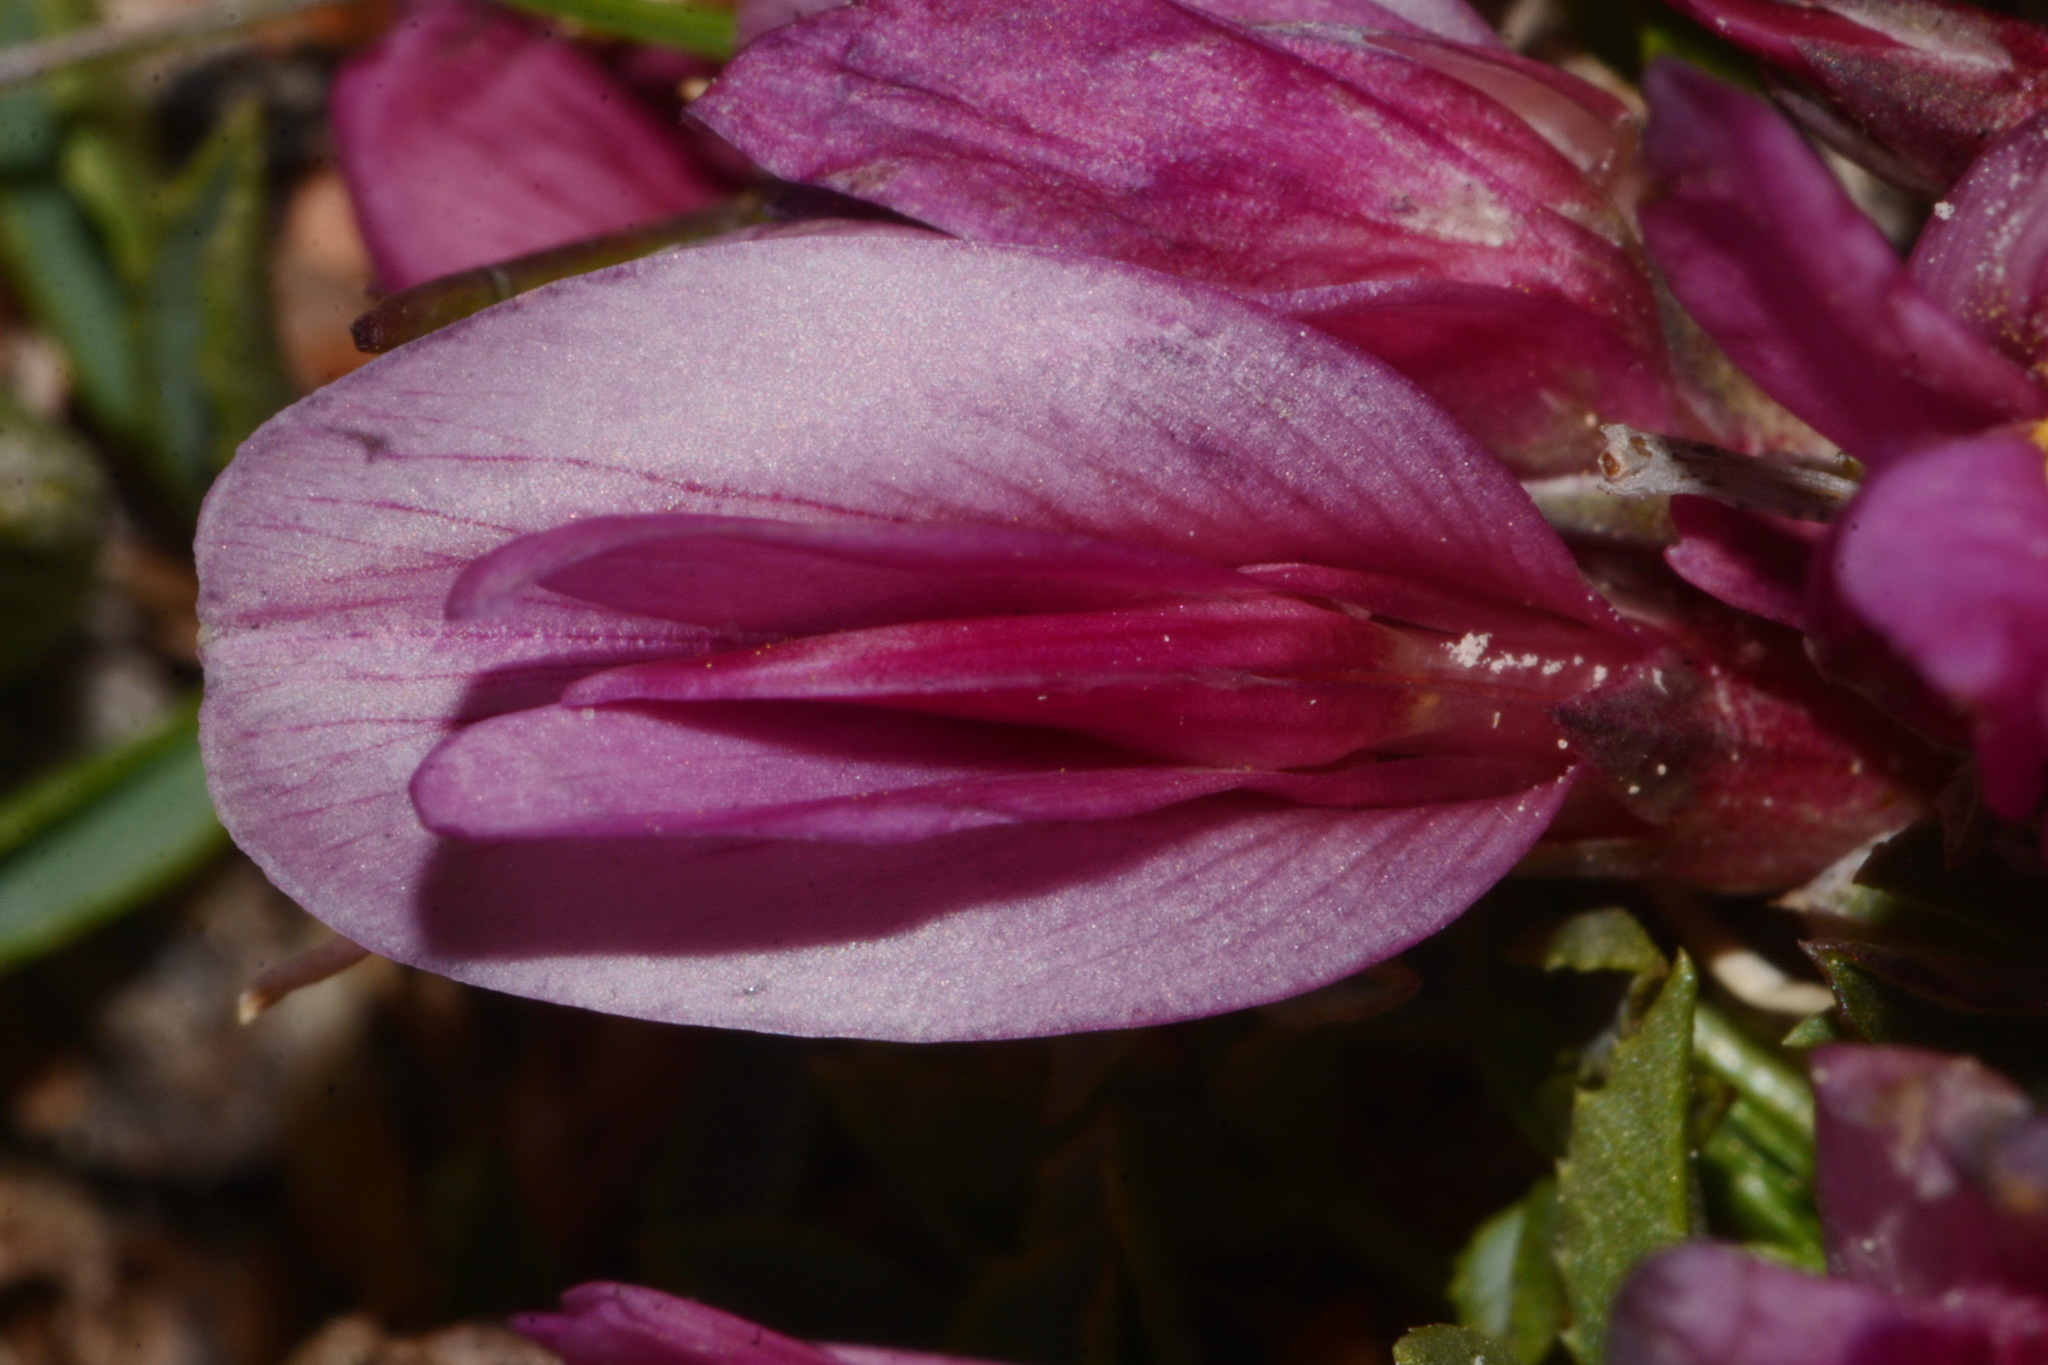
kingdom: Plantae
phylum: Tracheophyta
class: Magnoliopsida
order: Fabales
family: Fabaceae
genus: Trifolium
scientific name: Trifolium nanum
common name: Tundra clover
